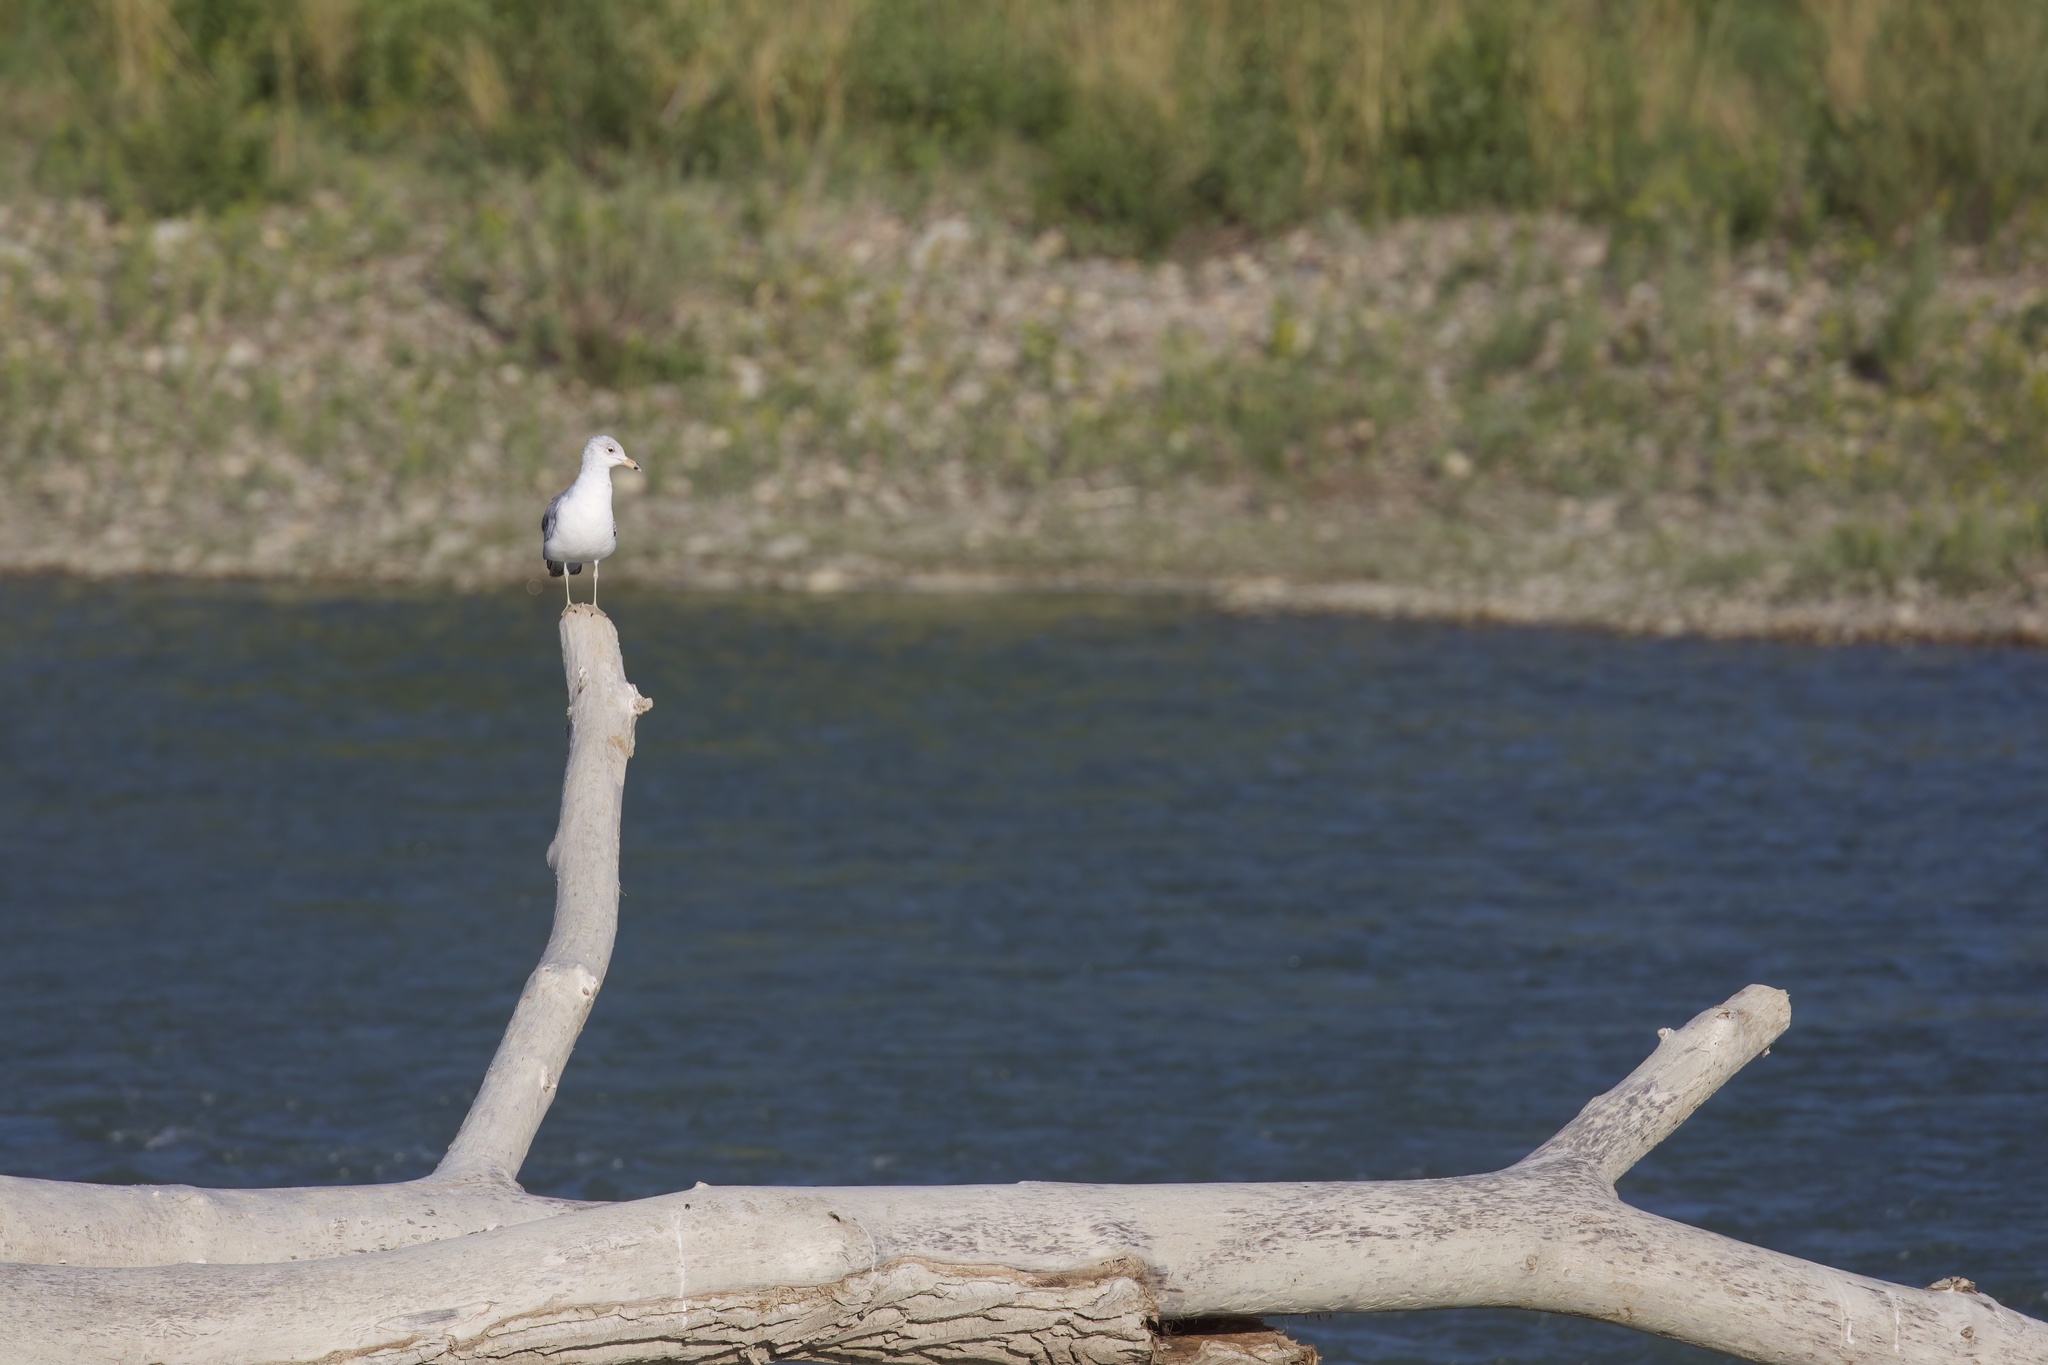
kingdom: Animalia
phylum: Chordata
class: Aves
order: Charadriiformes
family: Laridae
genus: Larus
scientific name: Larus delawarensis
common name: Ring-billed gull
